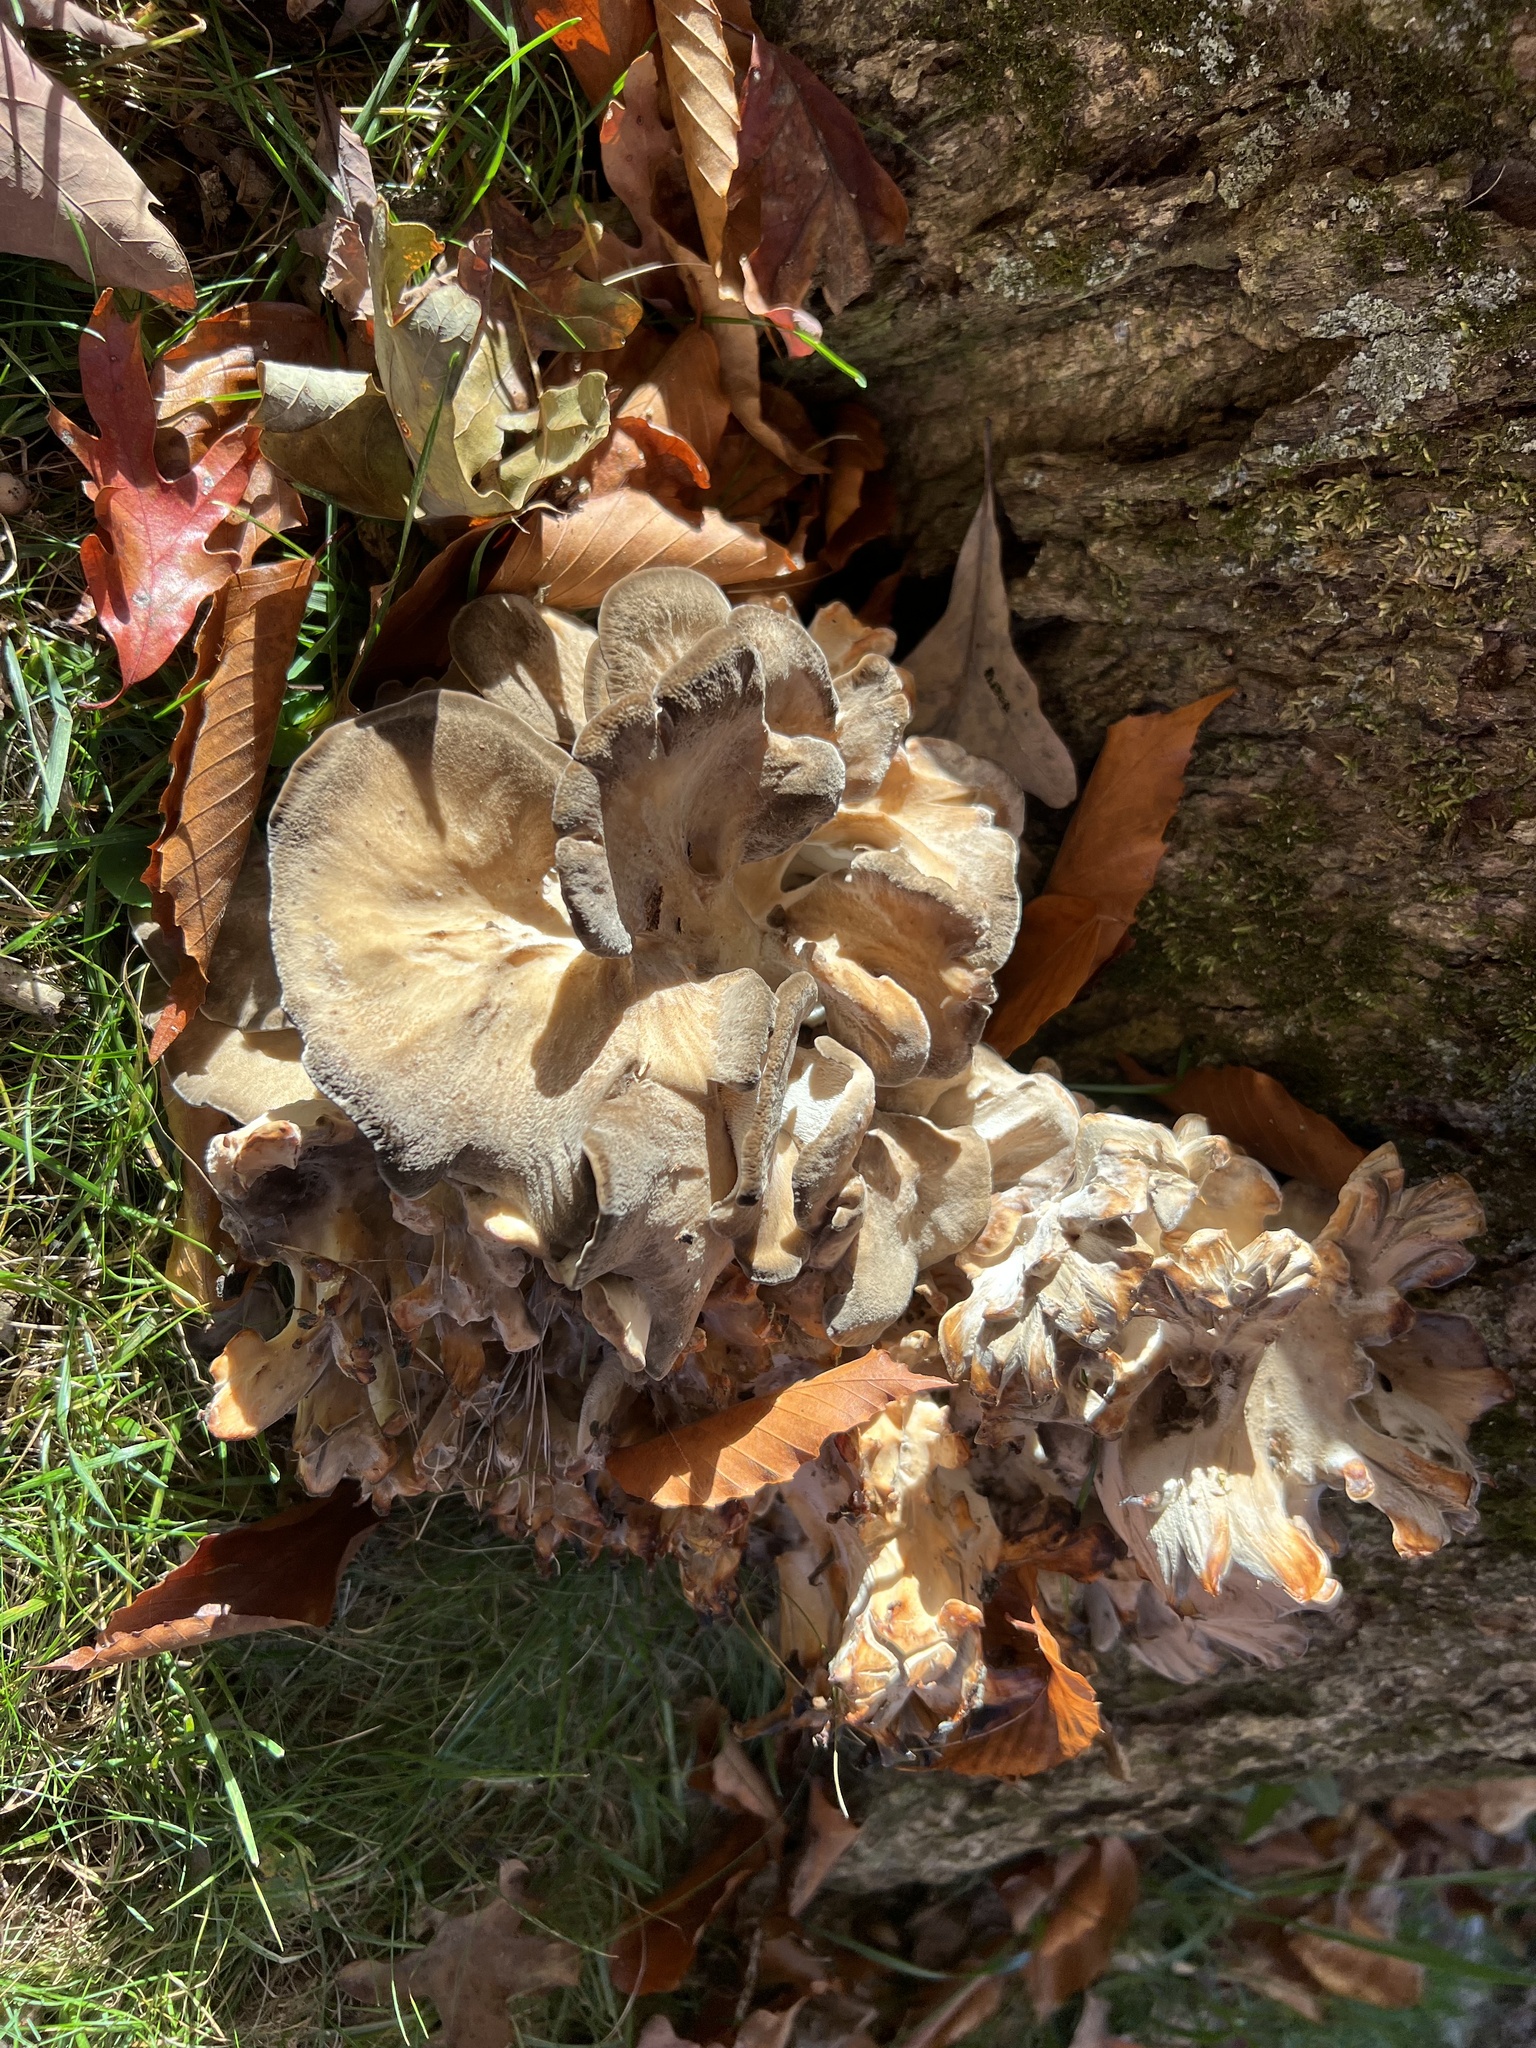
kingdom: Fungi
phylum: Basidiomycota
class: Agaricomycetes
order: Polyporales
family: Grifolaceae
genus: Grifola
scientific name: Grifola frondosa
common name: Hen of the woods
